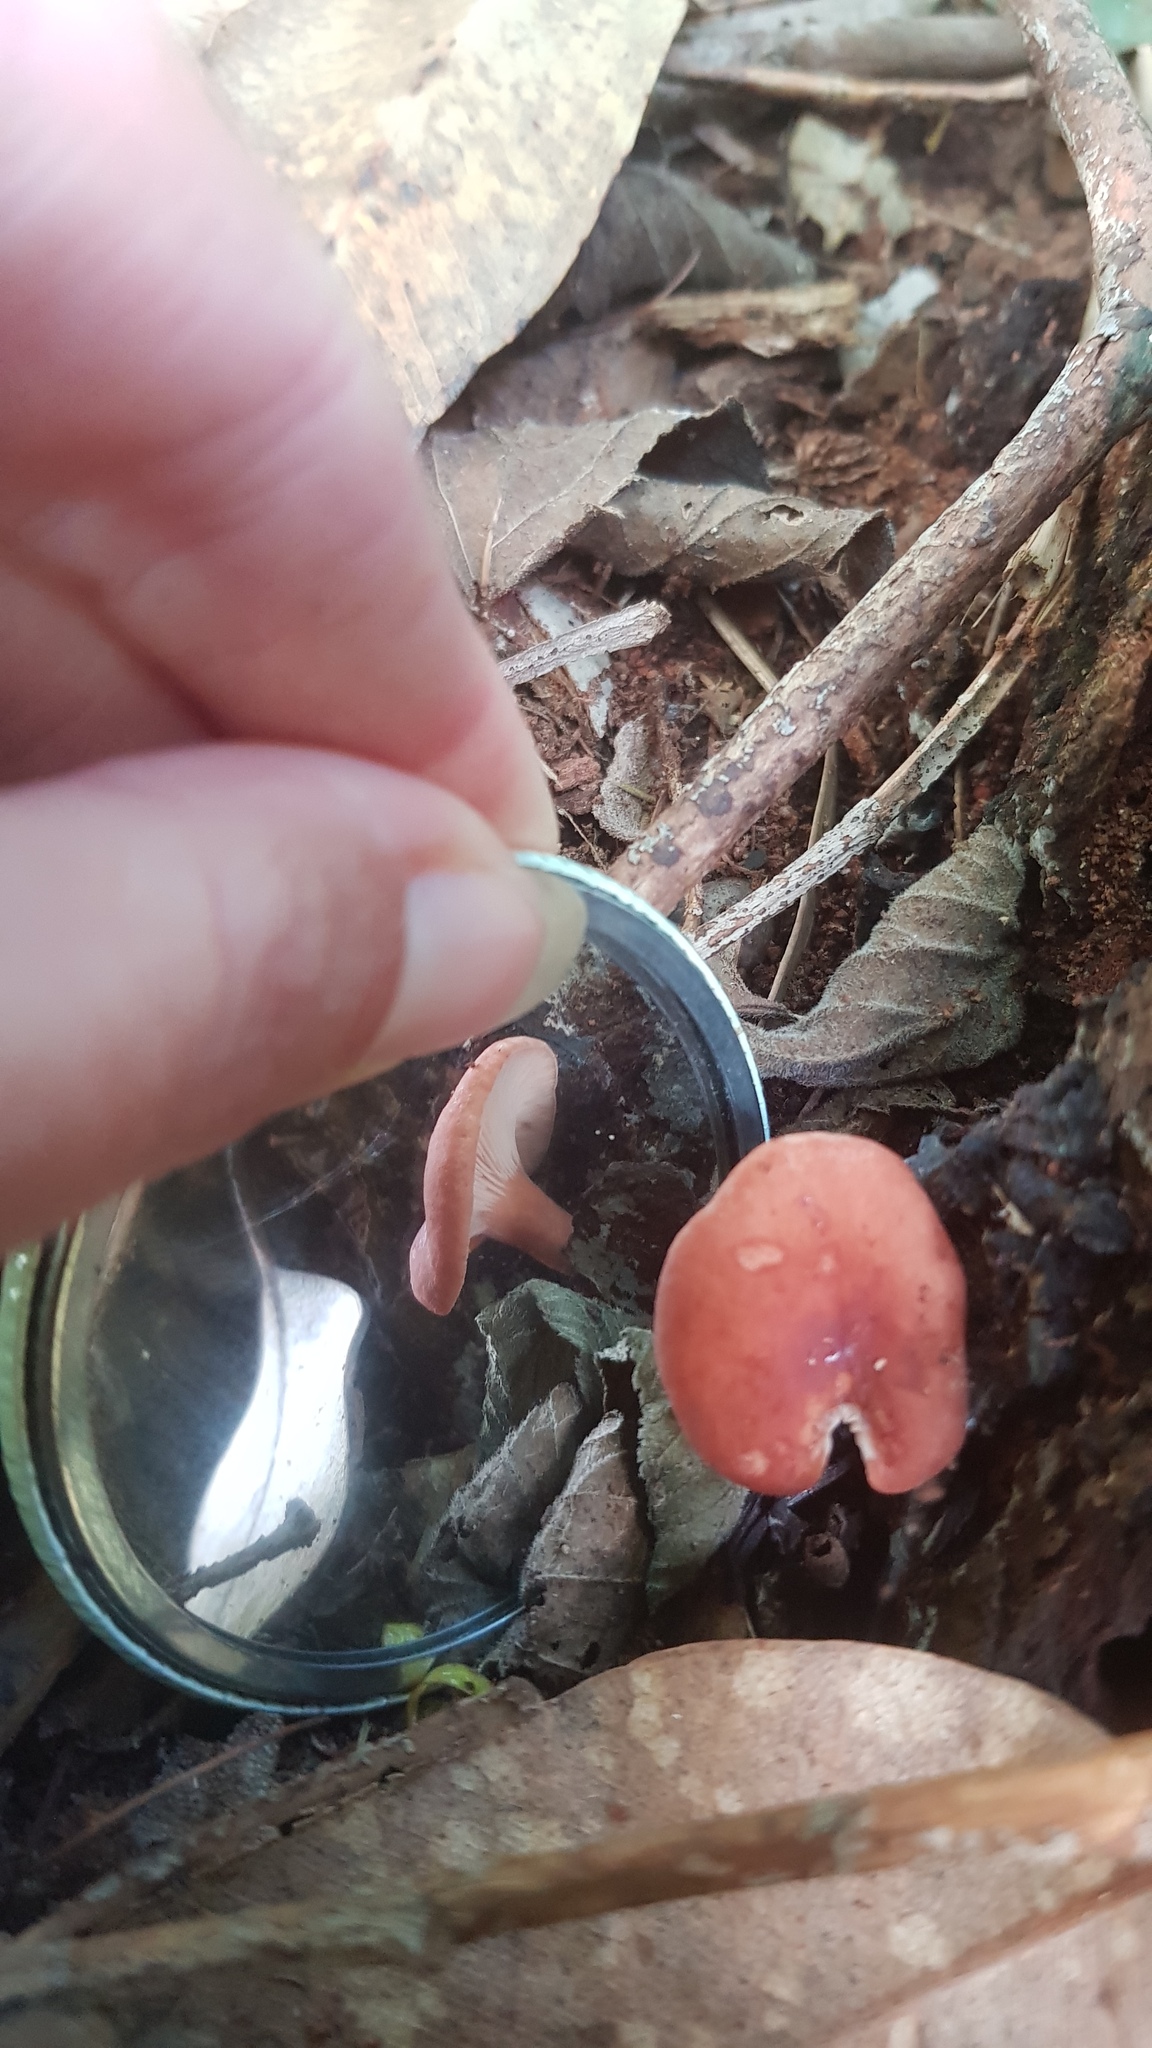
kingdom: Fungi
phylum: Basidiomycota
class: Agaricomycetes
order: Russulales
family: Russulaceae
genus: Lactarius
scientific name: Lactarius eucalypti
